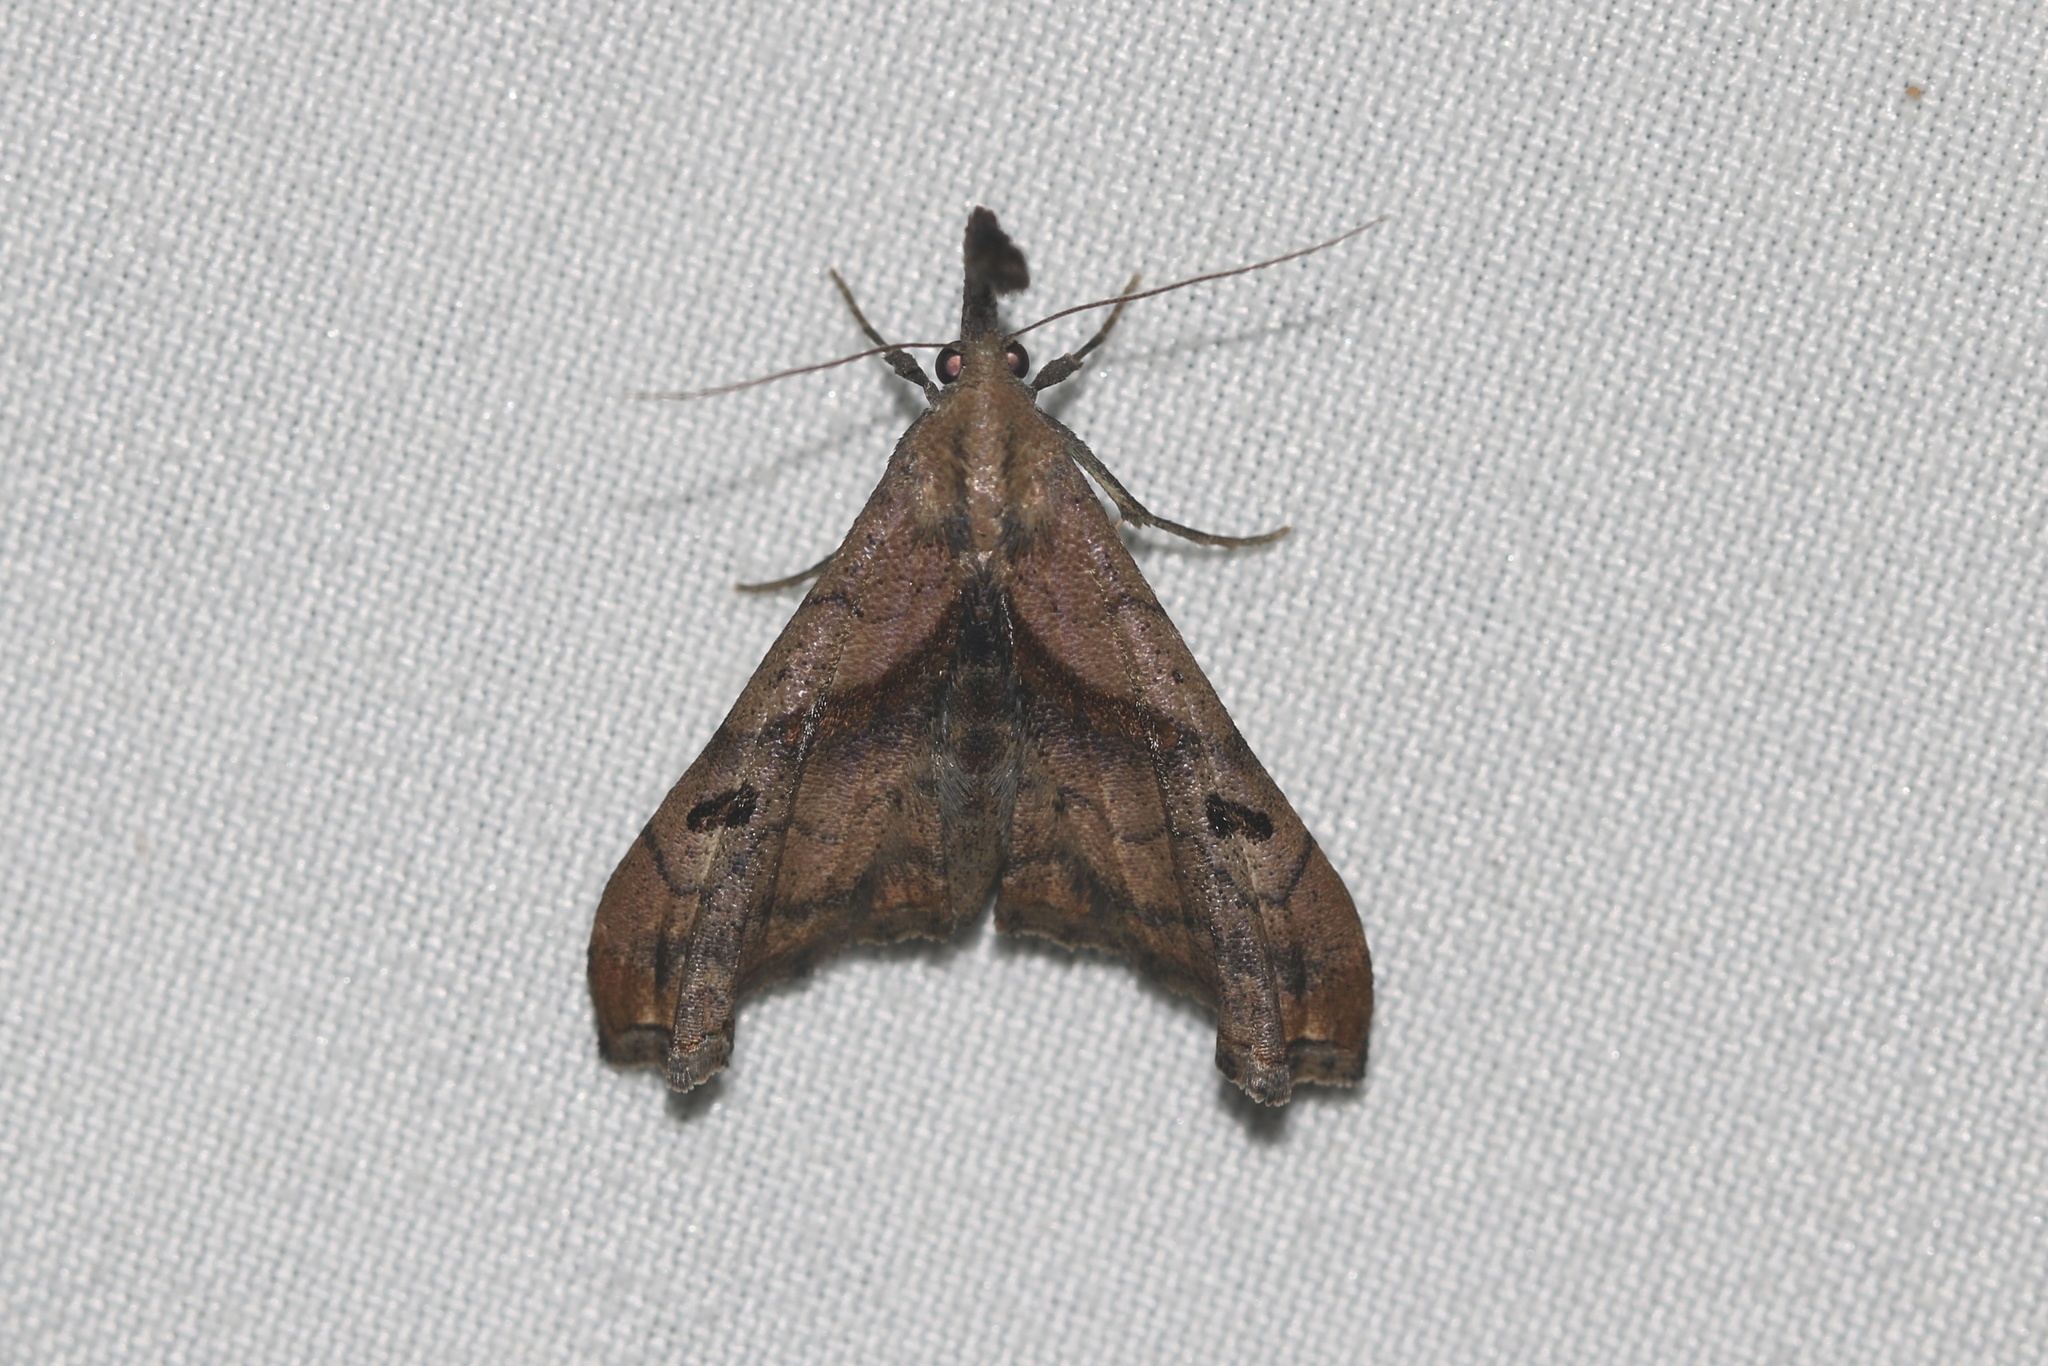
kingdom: Animalia
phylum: Arthropoda
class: Insecta
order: Lepidoptera
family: Erebidae
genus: Palthis
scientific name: Palthis angulalis
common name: Dark-spotted palthis moth
